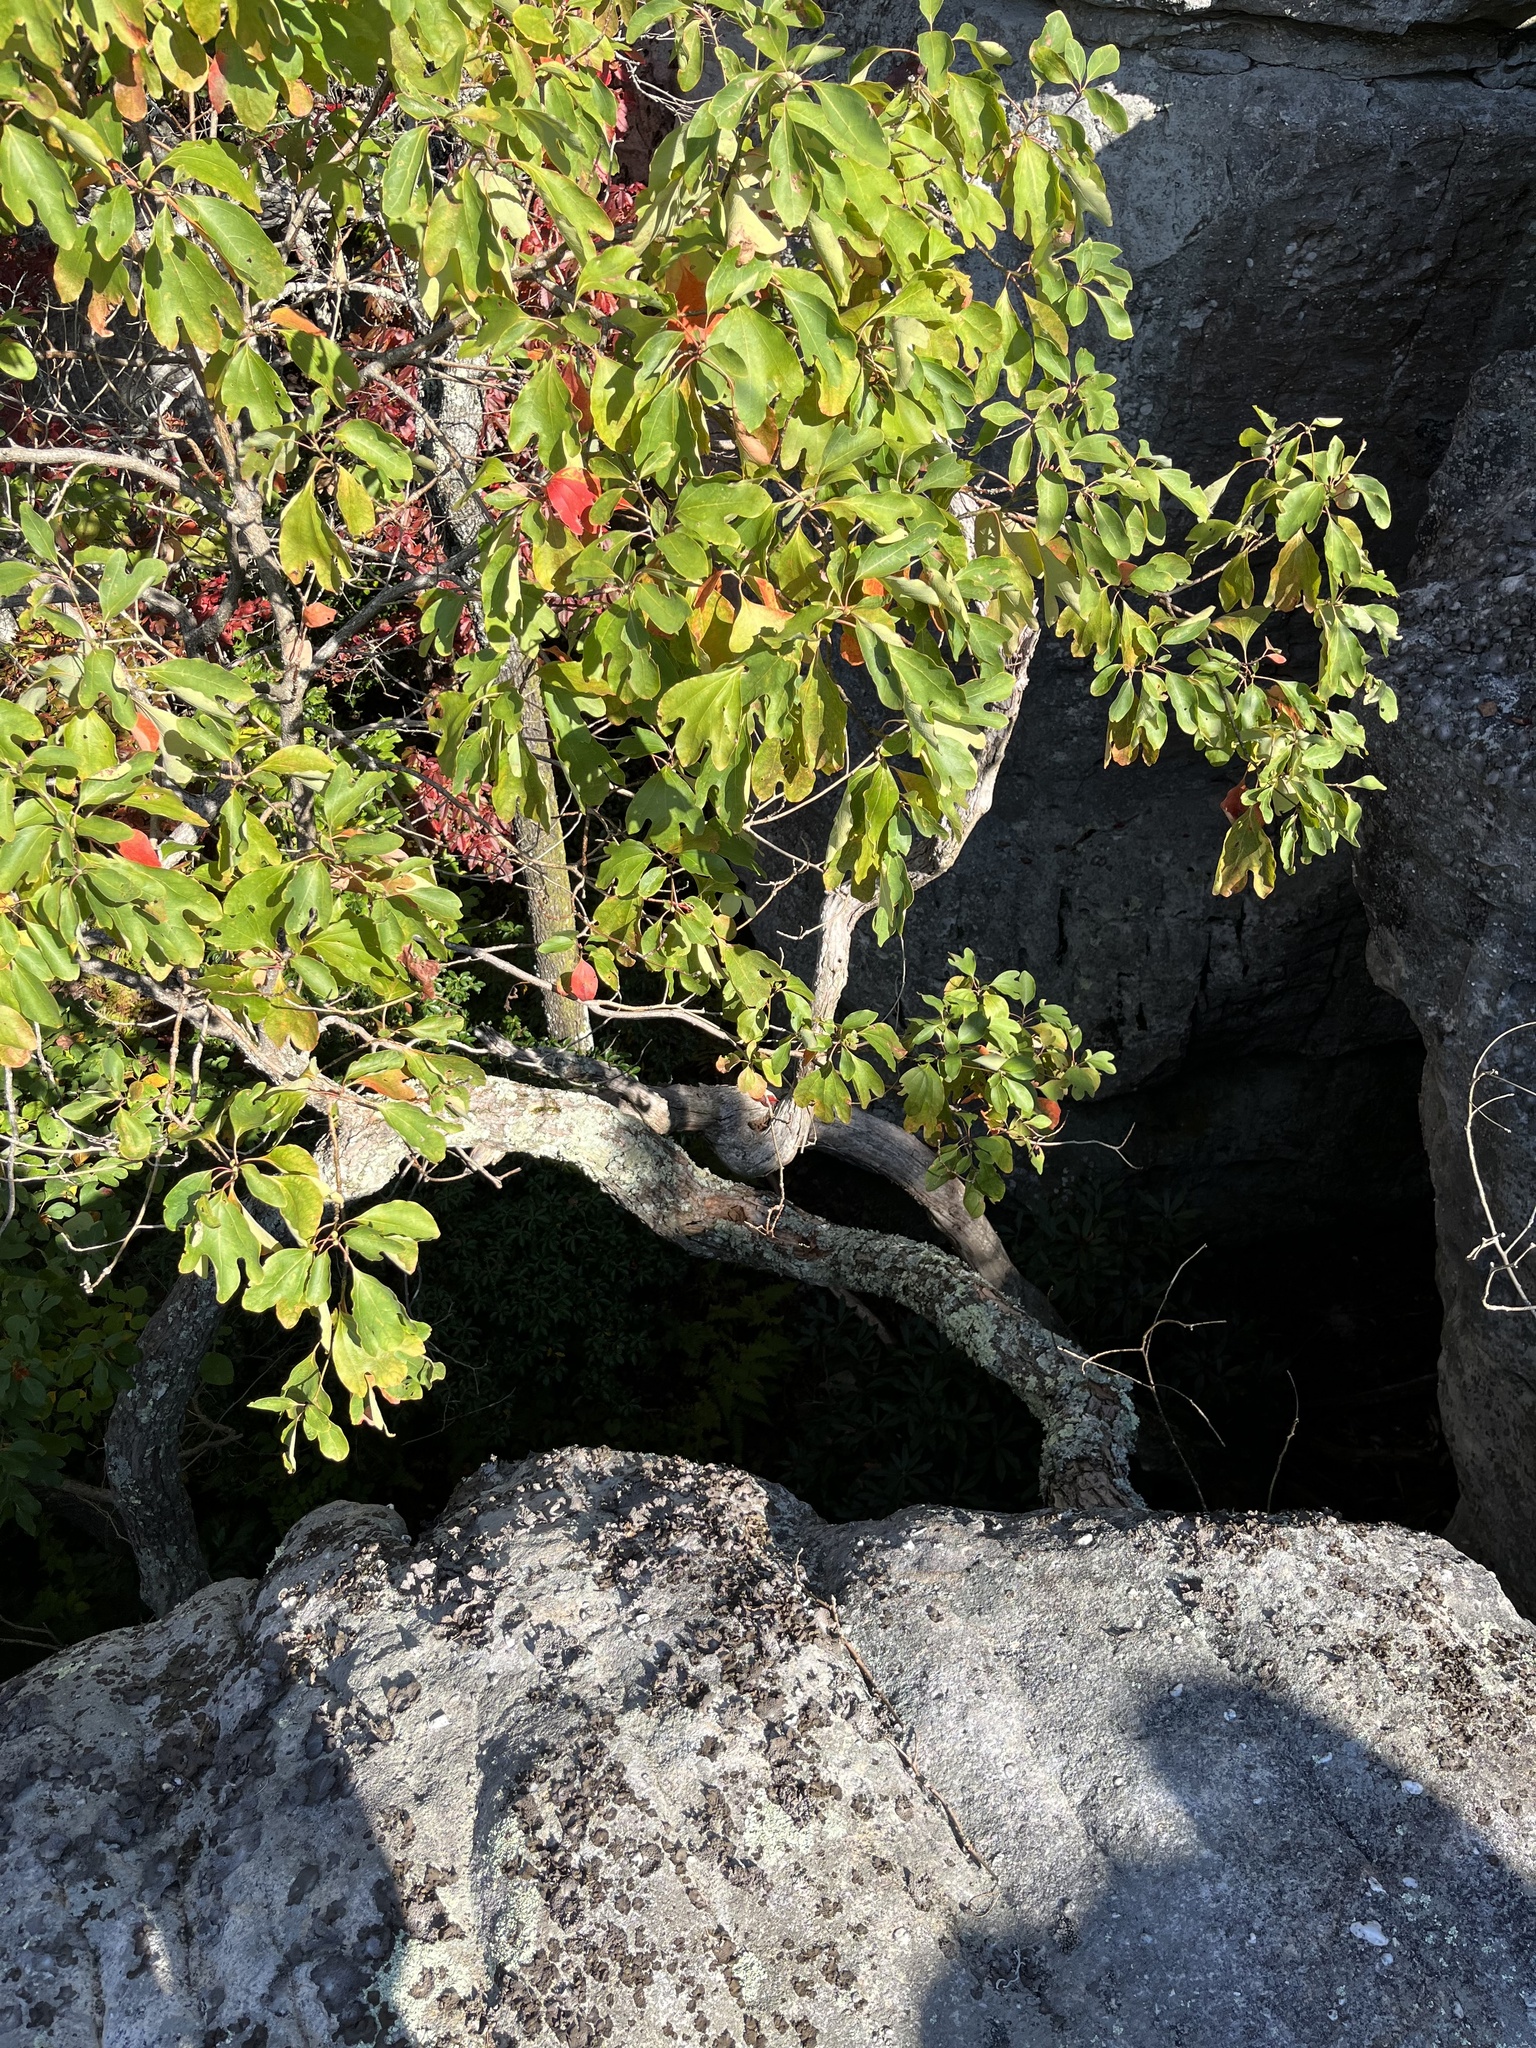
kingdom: Plantae
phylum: Tracheophyta
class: Magnoliopsida
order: Laurales
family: Lauraceae
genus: Sassafras
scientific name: Sassafras albidum
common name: Sassafras
